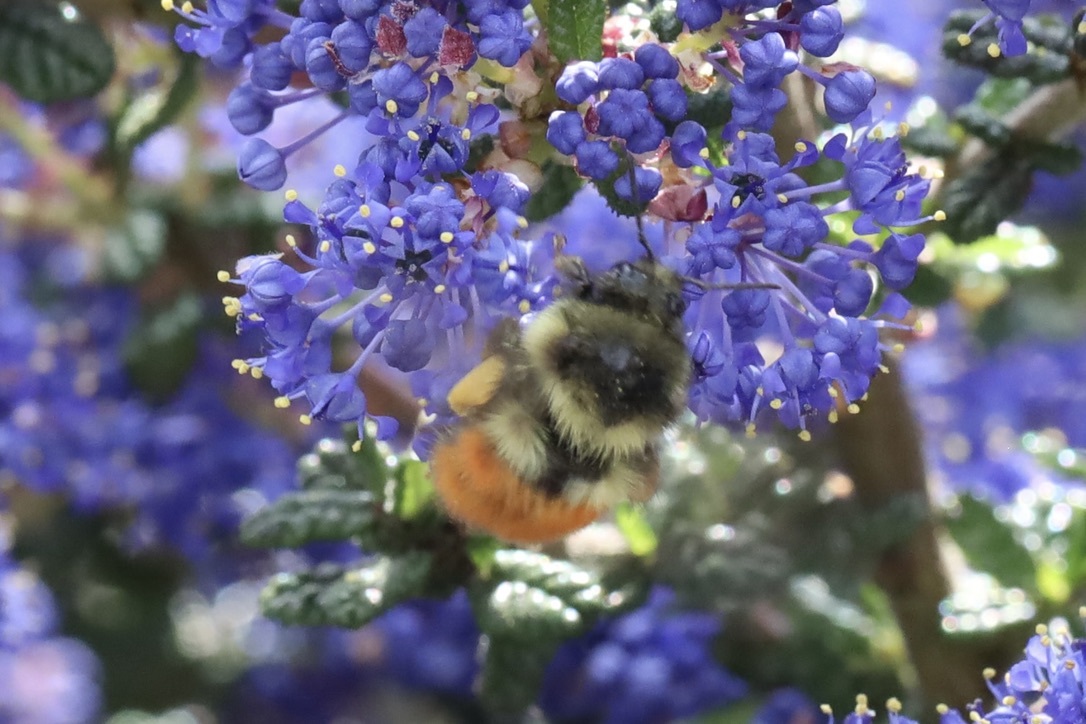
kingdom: Animalia
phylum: Arthropoda
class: Insecta
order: Hymenoptera
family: Apidae
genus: Bombus
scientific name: Bombus melanopygus
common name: Black tail bumble bee
